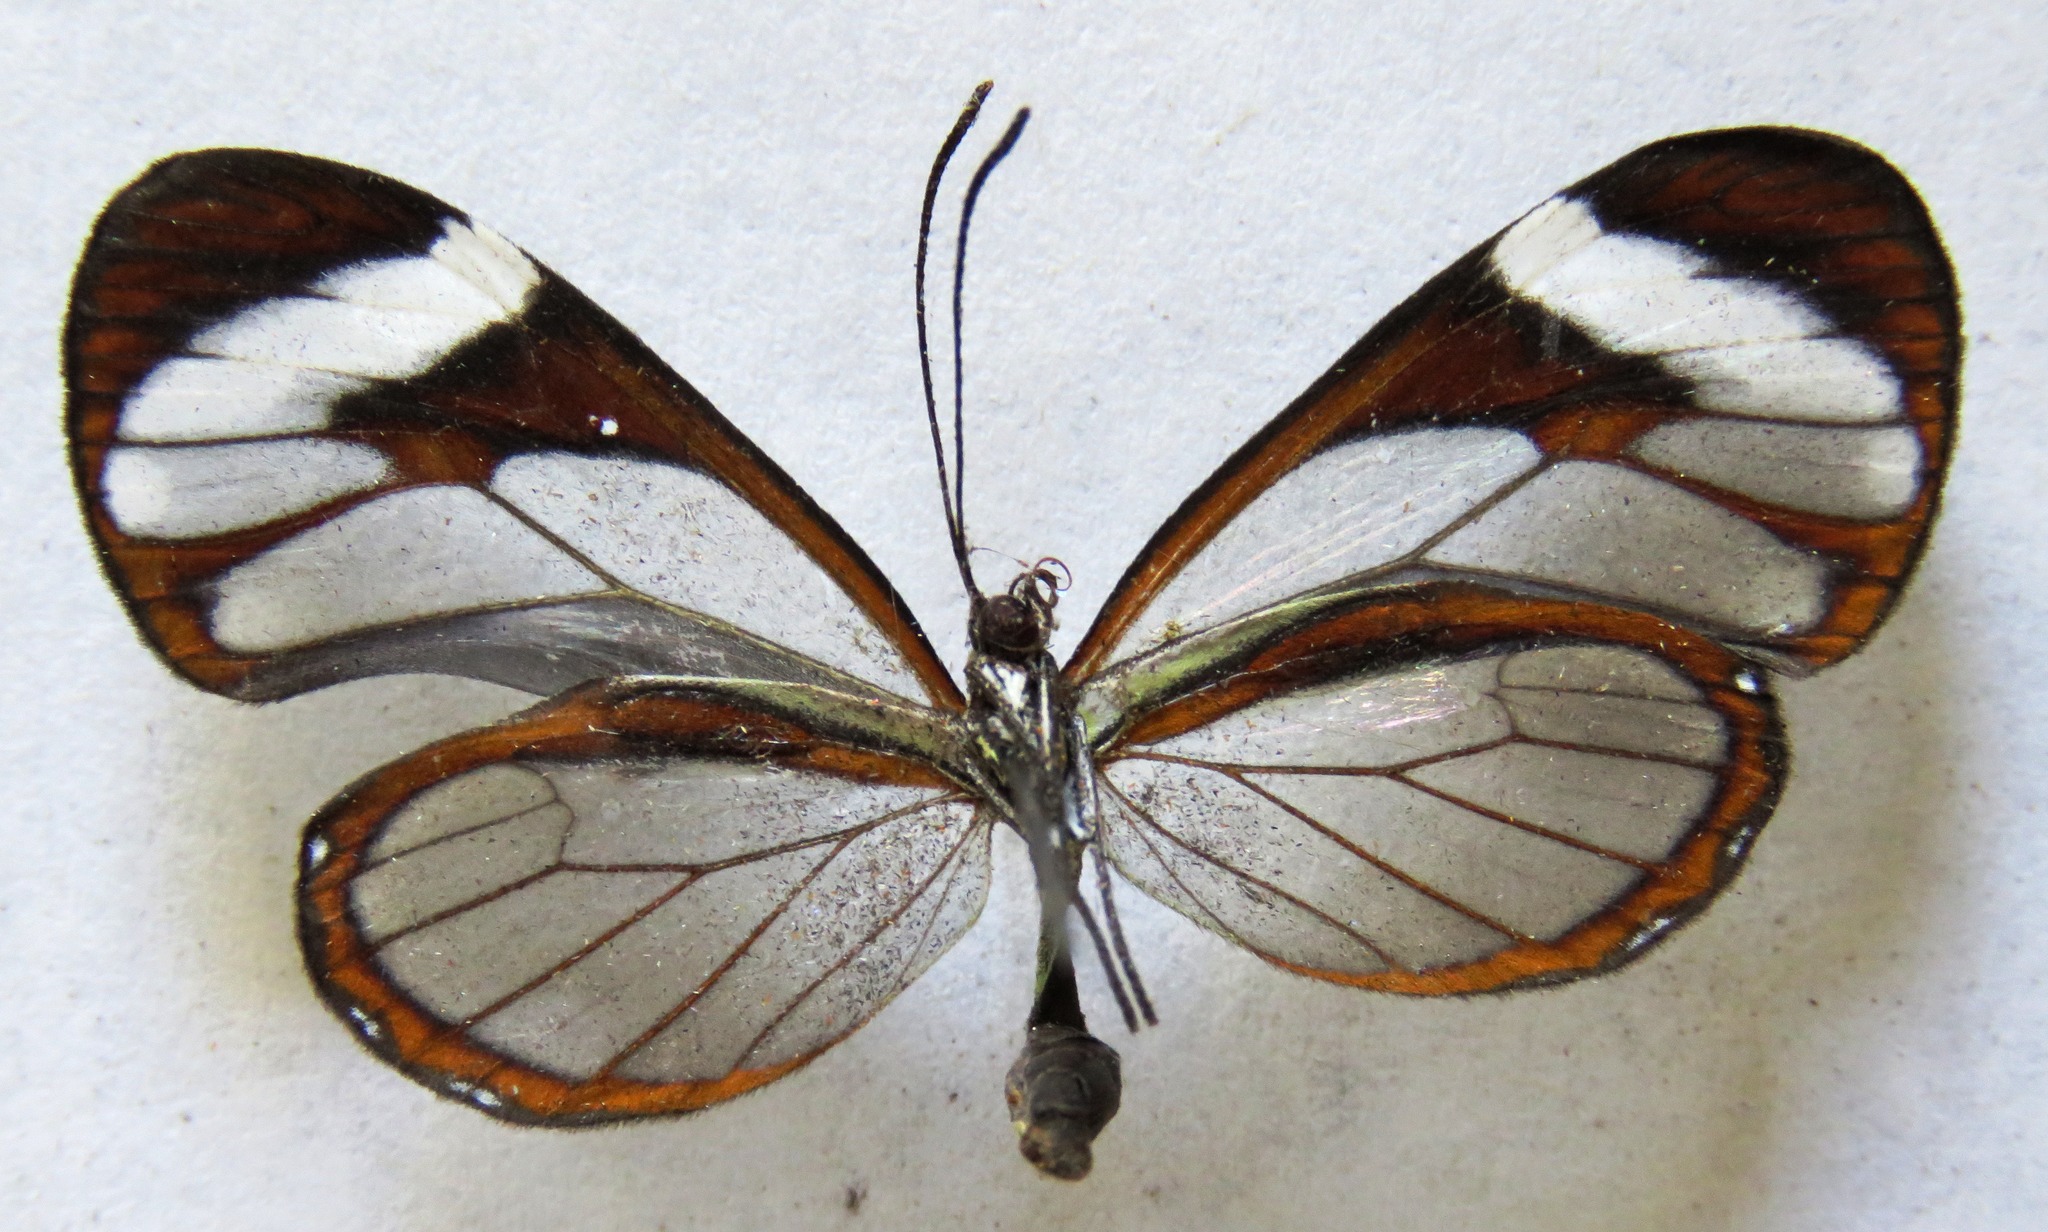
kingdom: Animalia
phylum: Arthropoda
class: Insecta
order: Lepidoptera
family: Nymphalidae
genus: Ithomia
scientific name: Ithomia patilla
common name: Patilla clearwing
